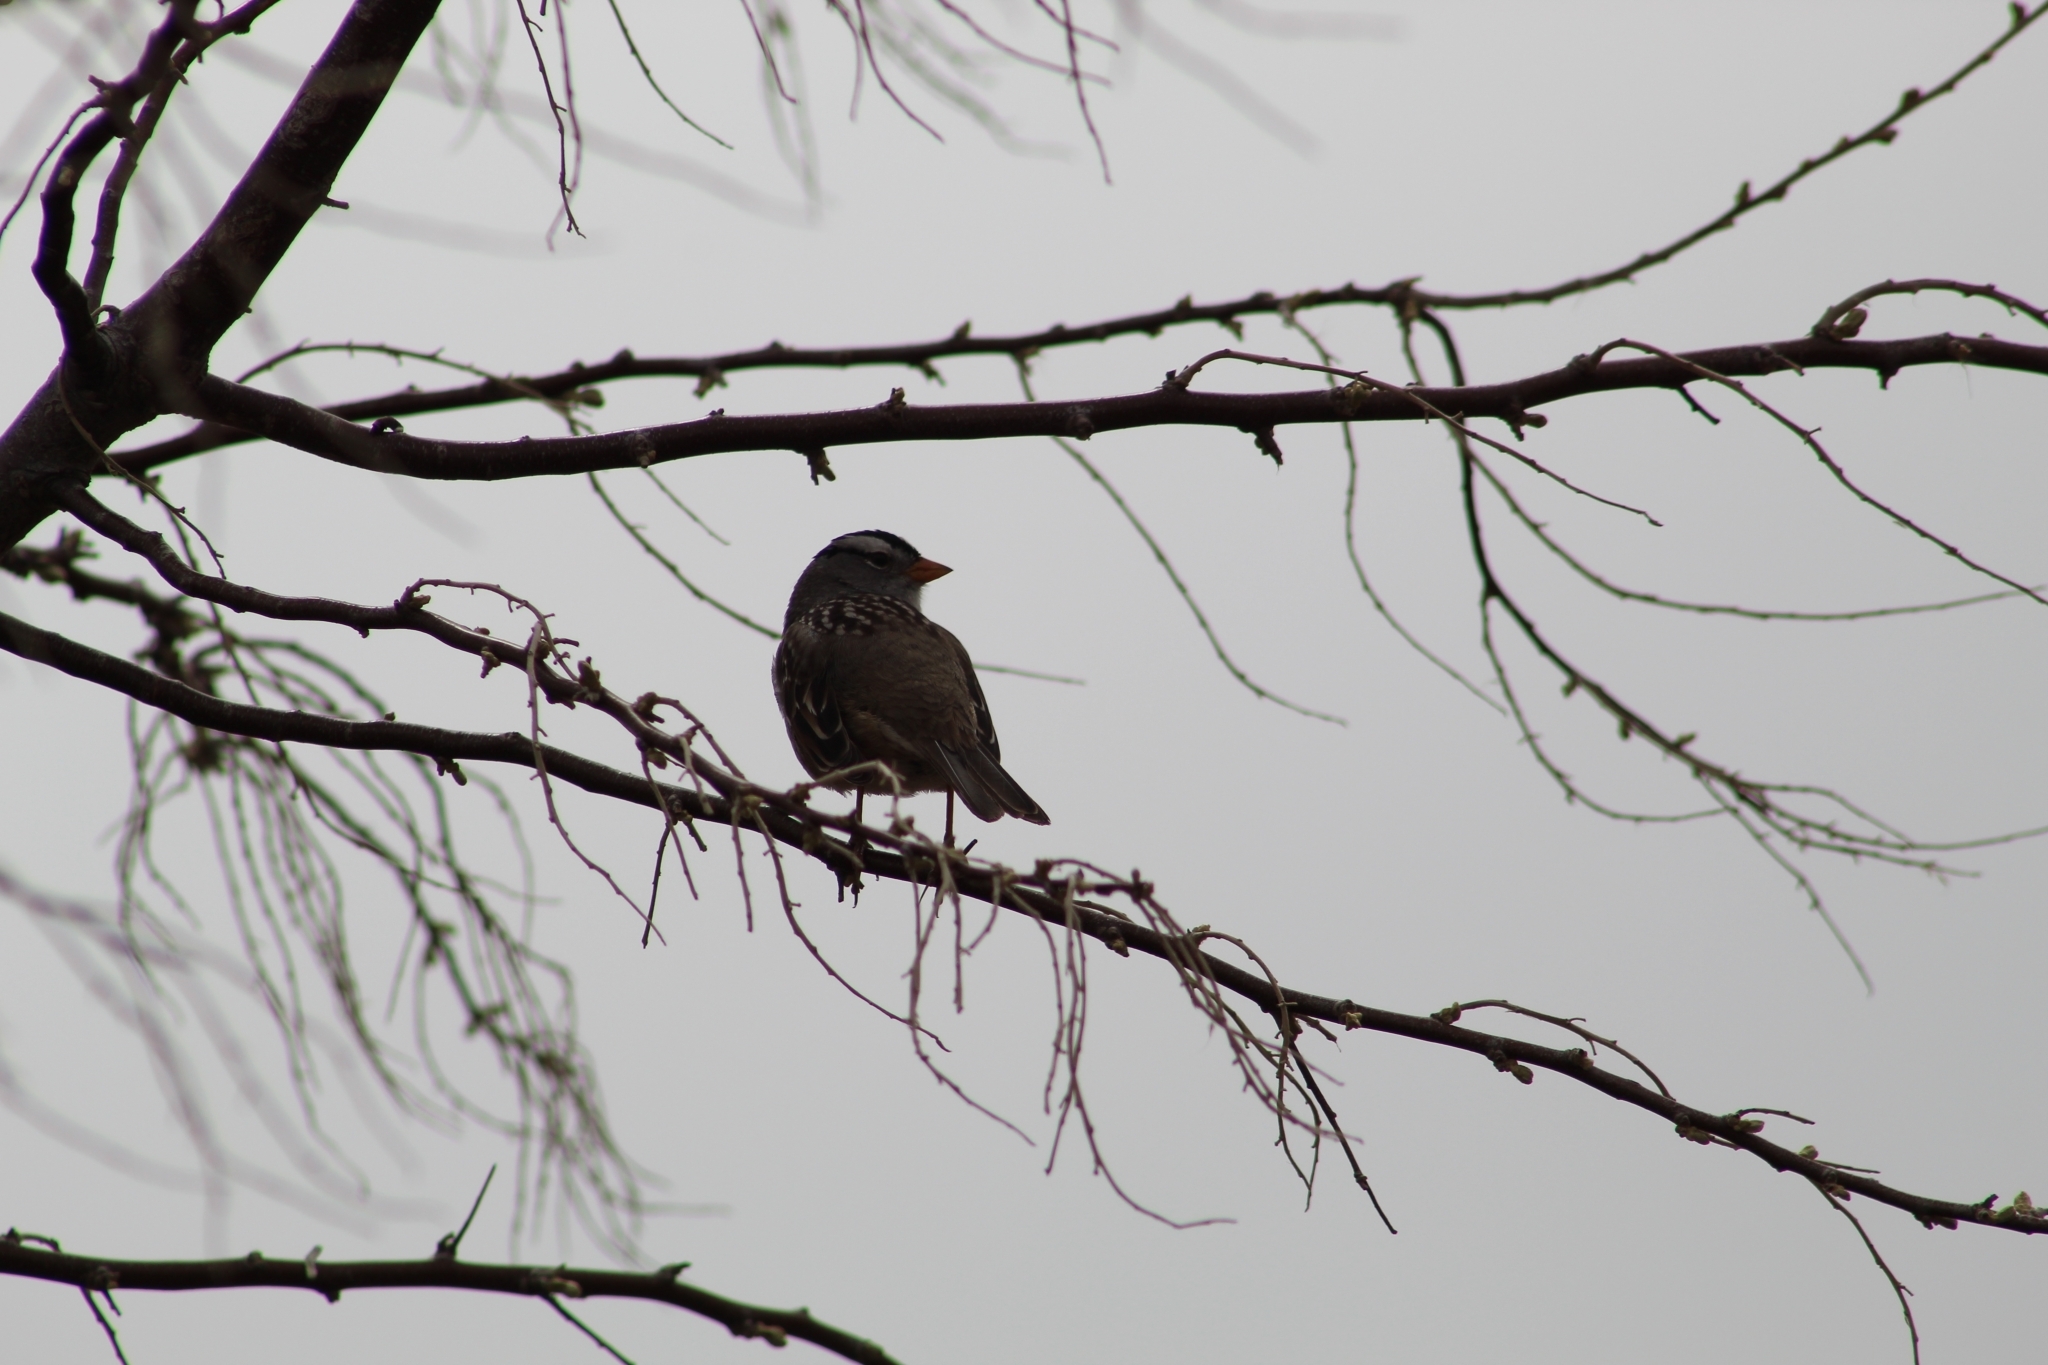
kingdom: Animalia
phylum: Chordata
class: Aves
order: Passeriformes
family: Passerellidae
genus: Zonotrichia
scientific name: Zonotrichia leucophrys
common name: White-crowned sparrow
